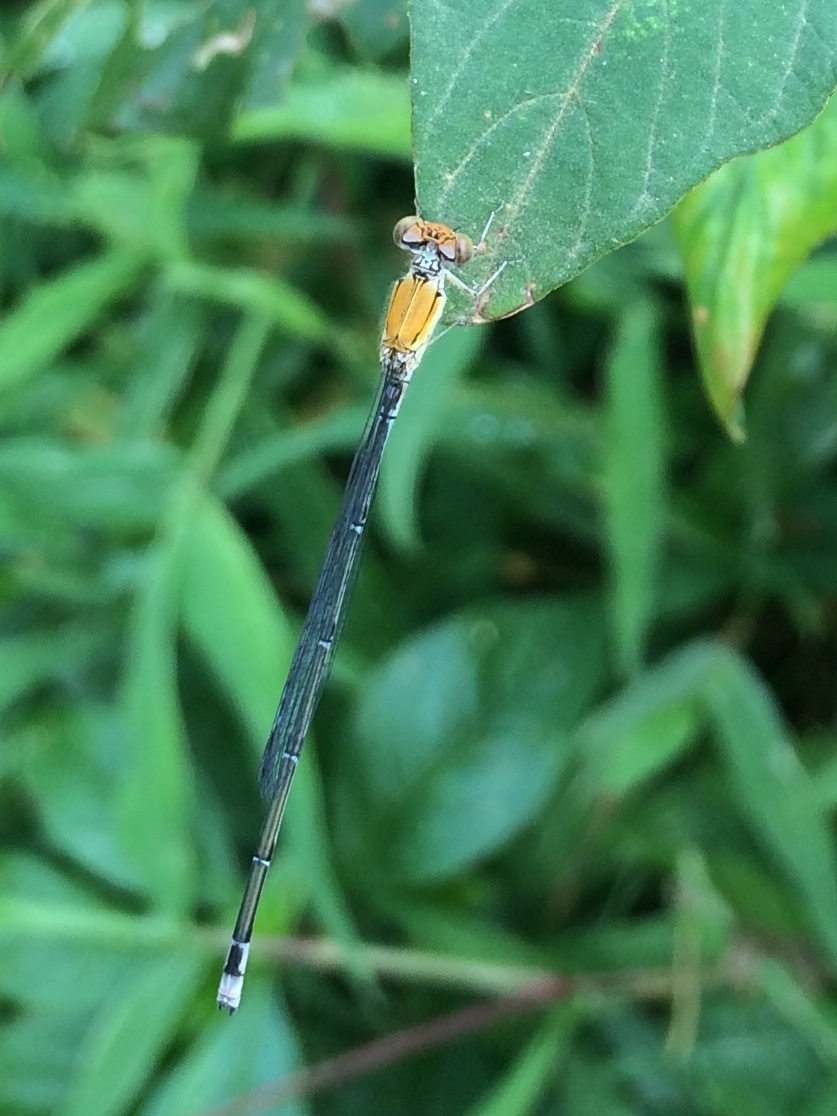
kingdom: Animalia
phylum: Arthropoda
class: Insecta
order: Odonata
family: Coenagrionidae
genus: Pseudagrion
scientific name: Pseudagrion rubriceps
